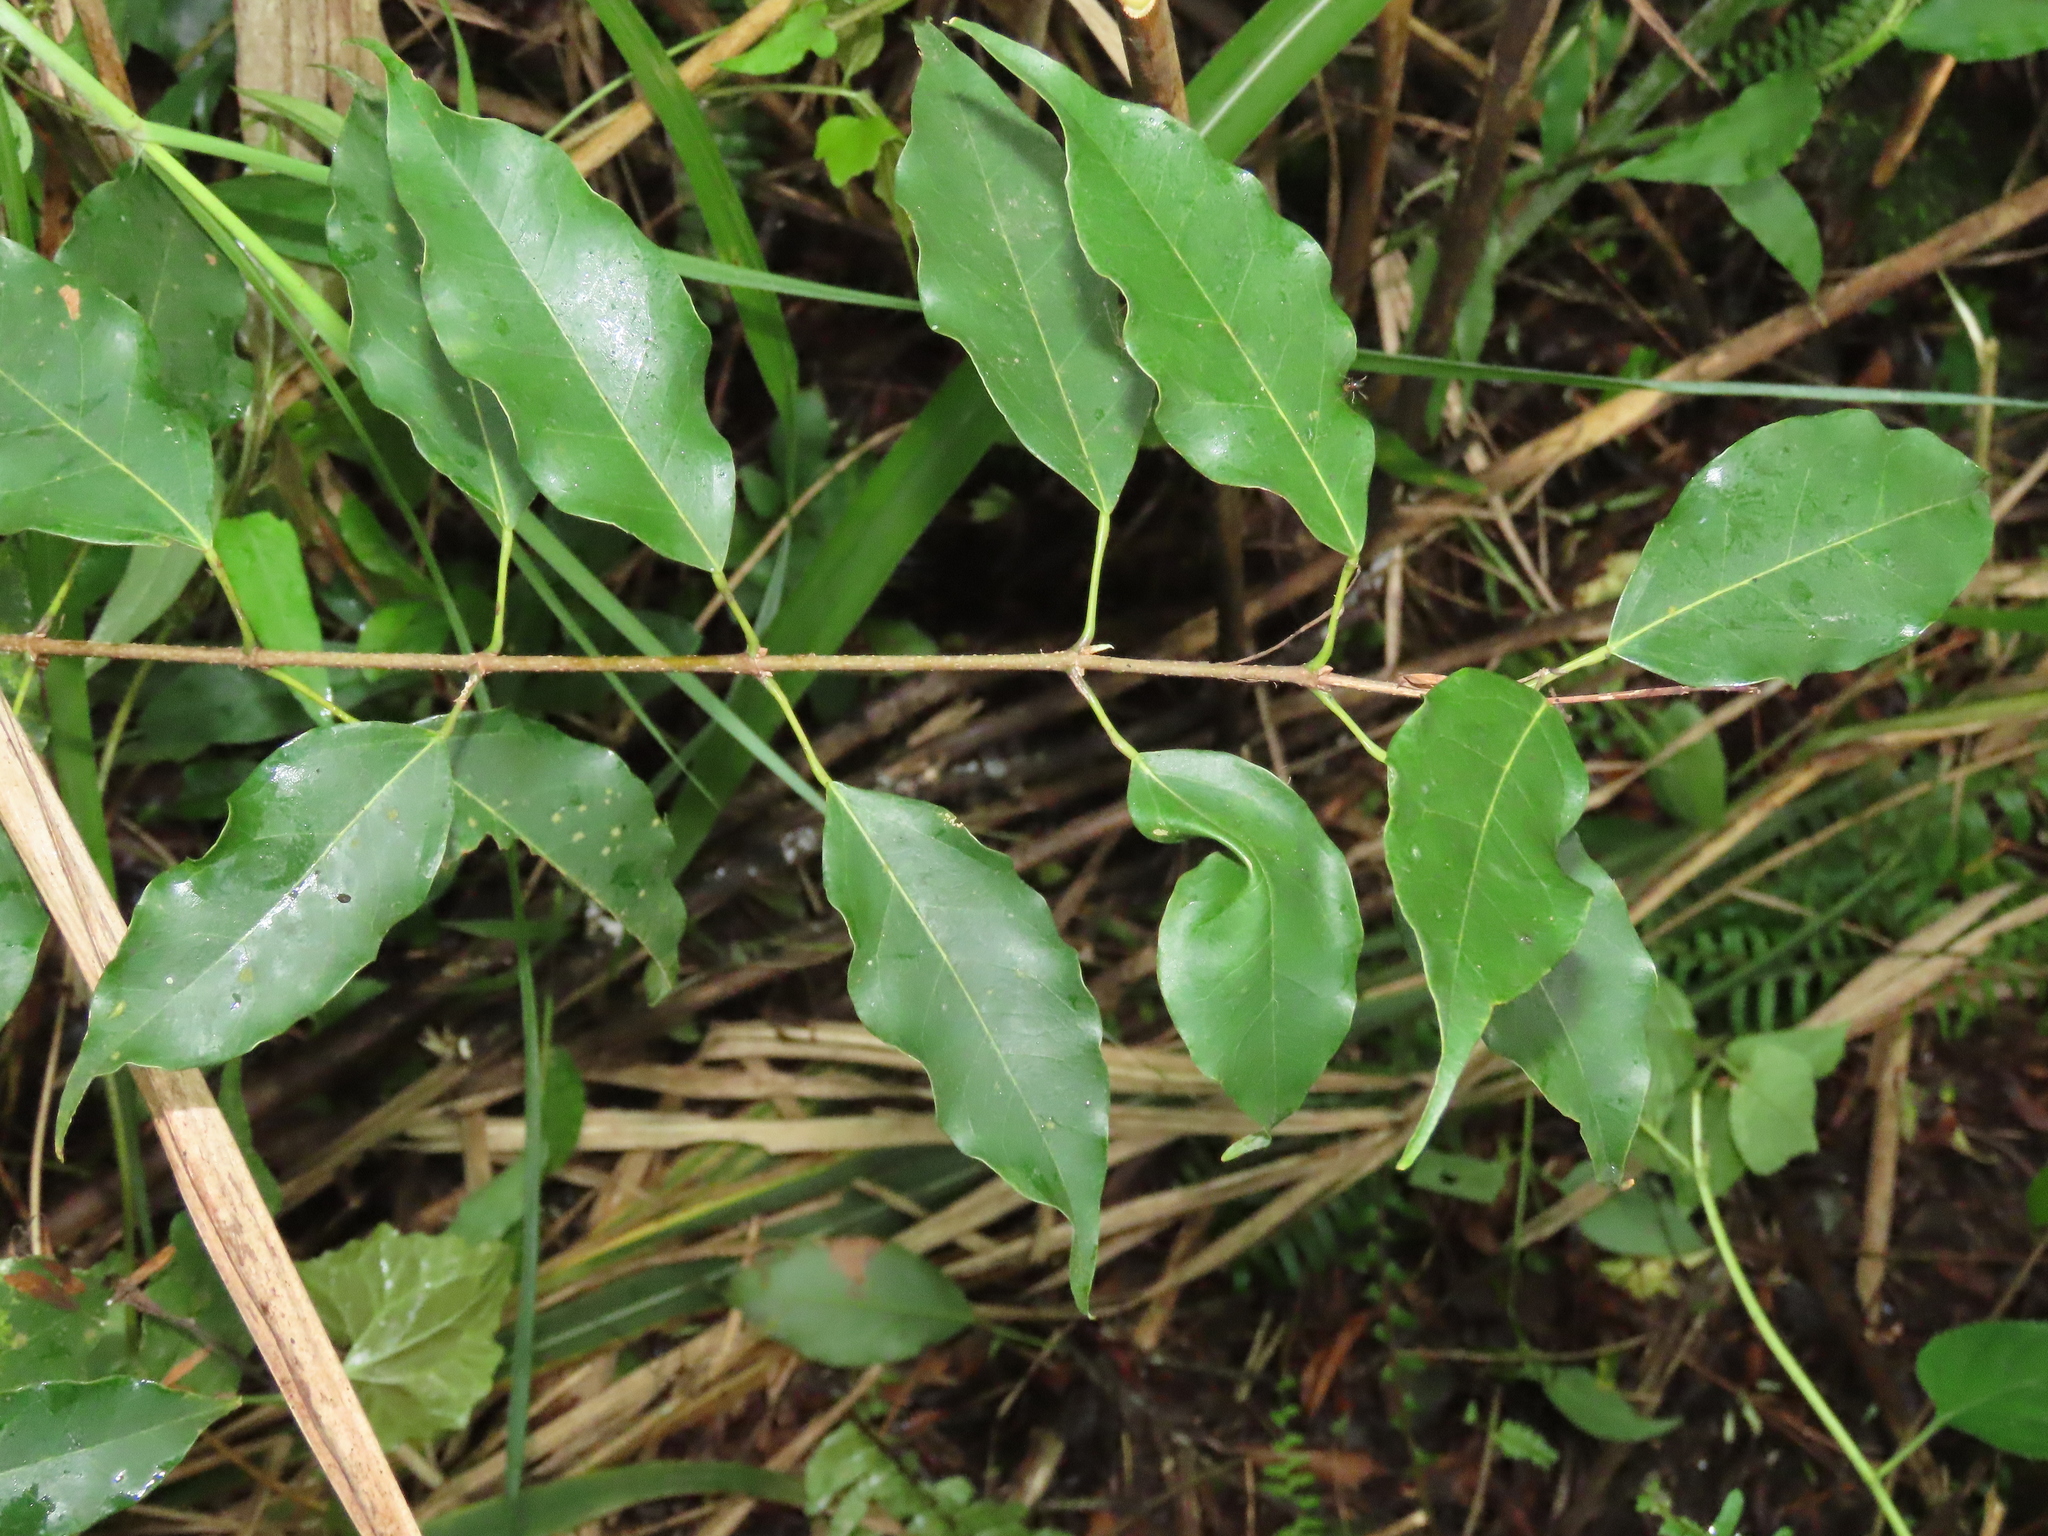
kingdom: Plantae
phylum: Tracheophyta
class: Magnoliopsida
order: Sapindales
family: Sapindaceae
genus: Acer
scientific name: Acer oblongum
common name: Himalayan maple
